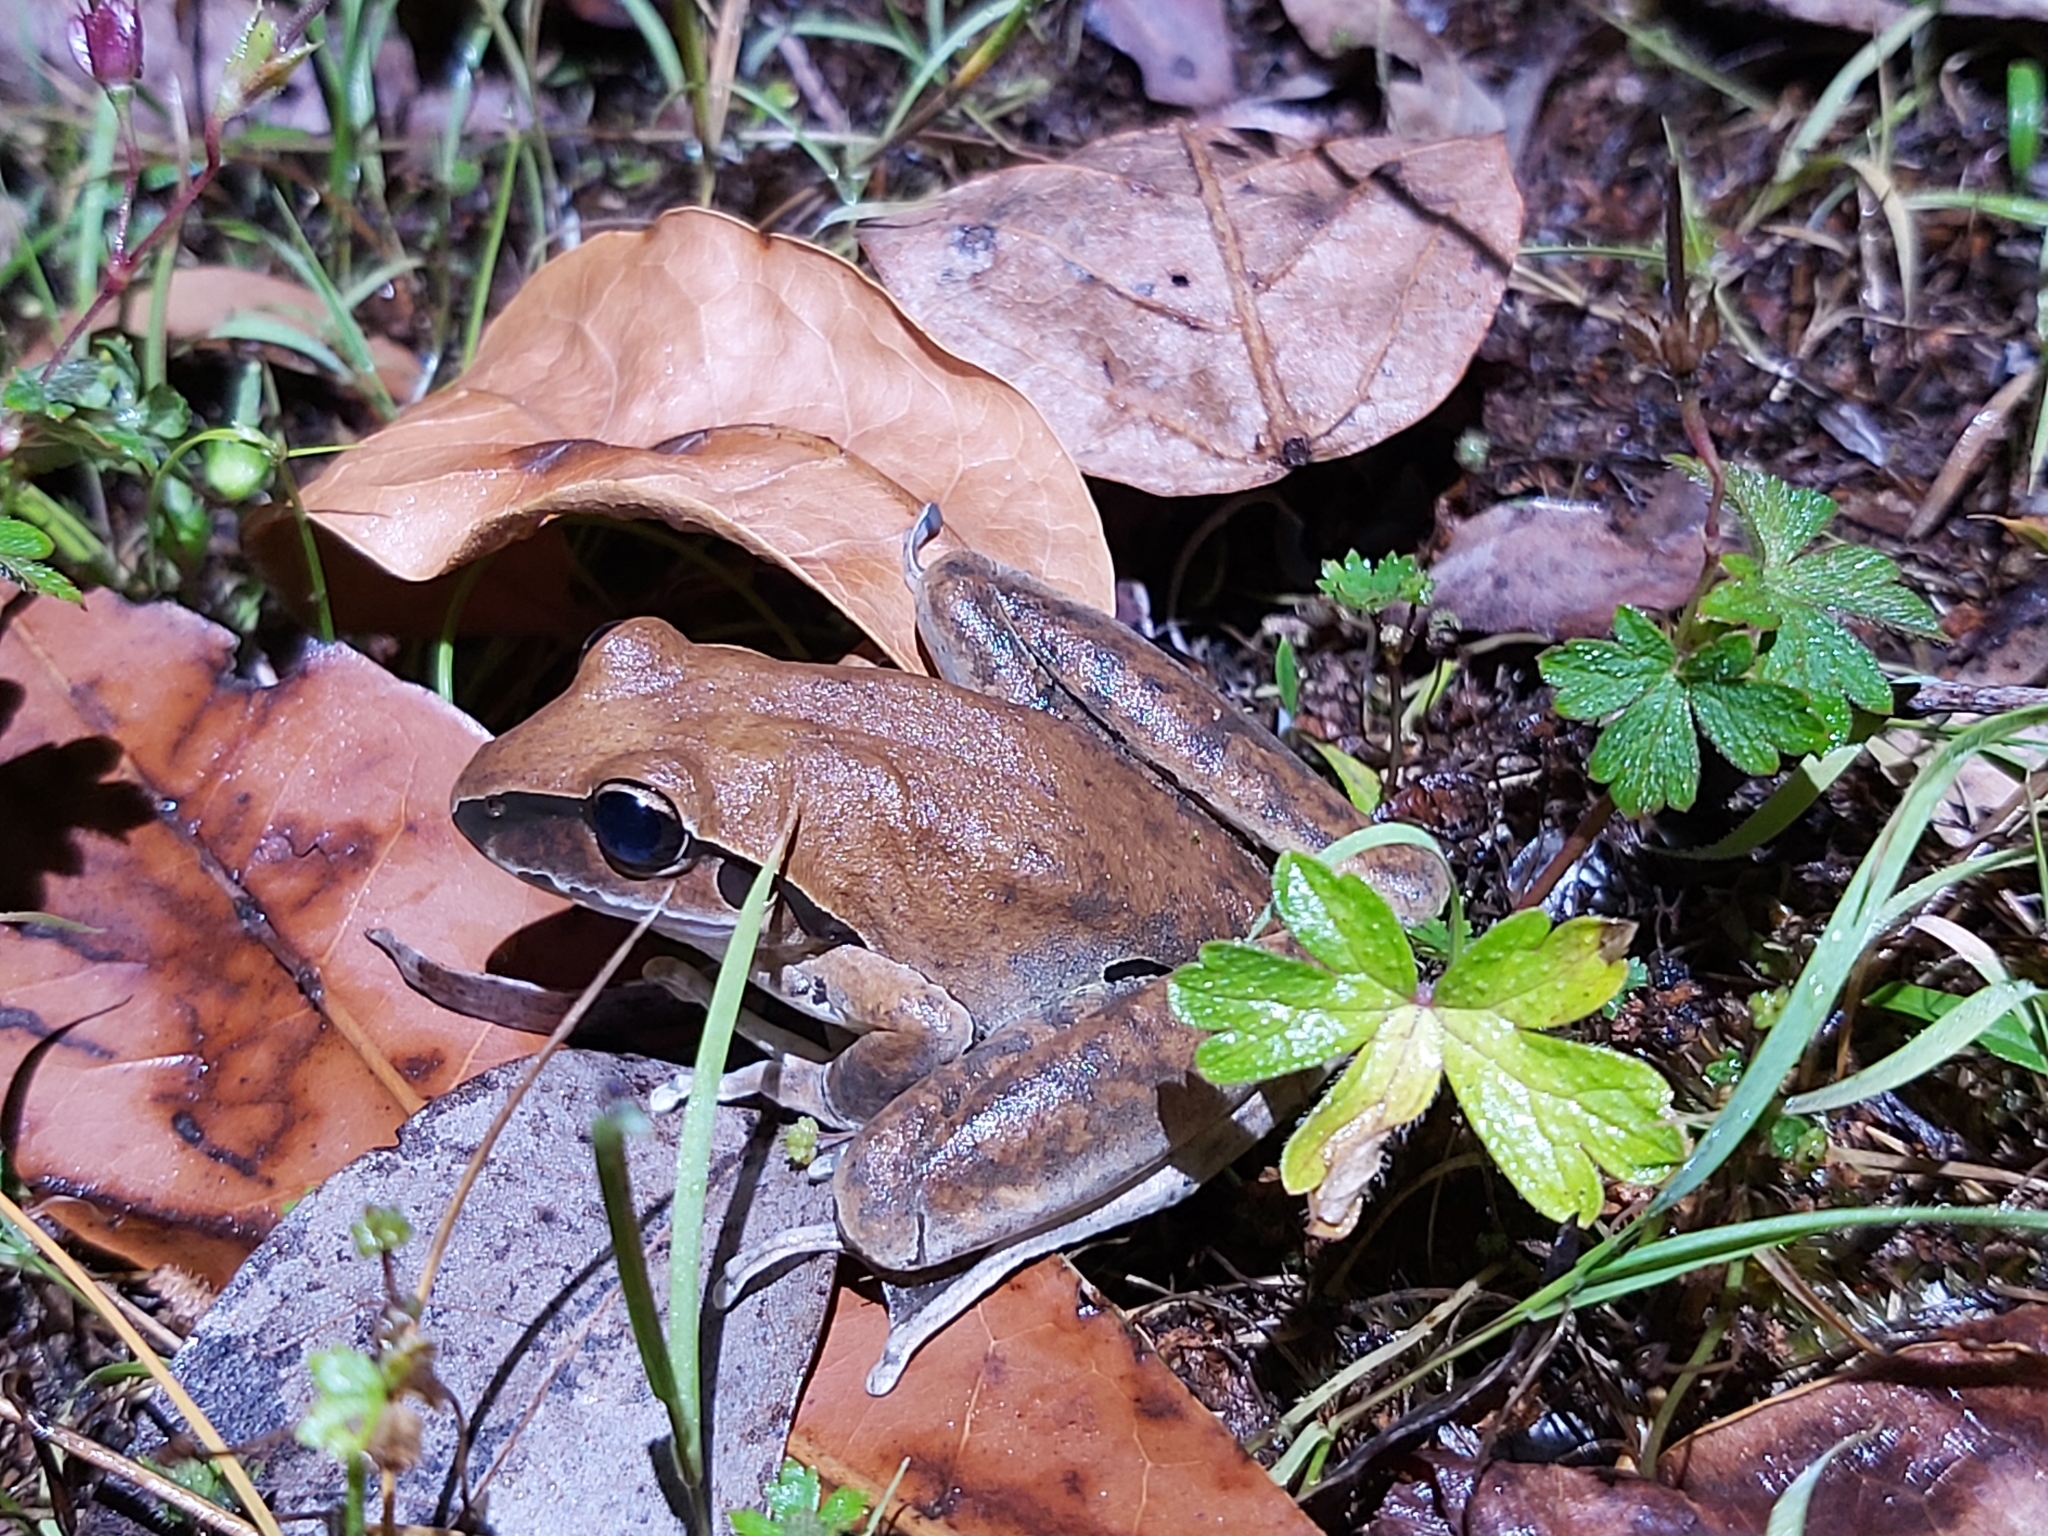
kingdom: Animalia
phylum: Chordata
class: Amphibia
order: Anura
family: Pelodryadidae
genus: Ranoidea
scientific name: Ranoidea wilcoxii
